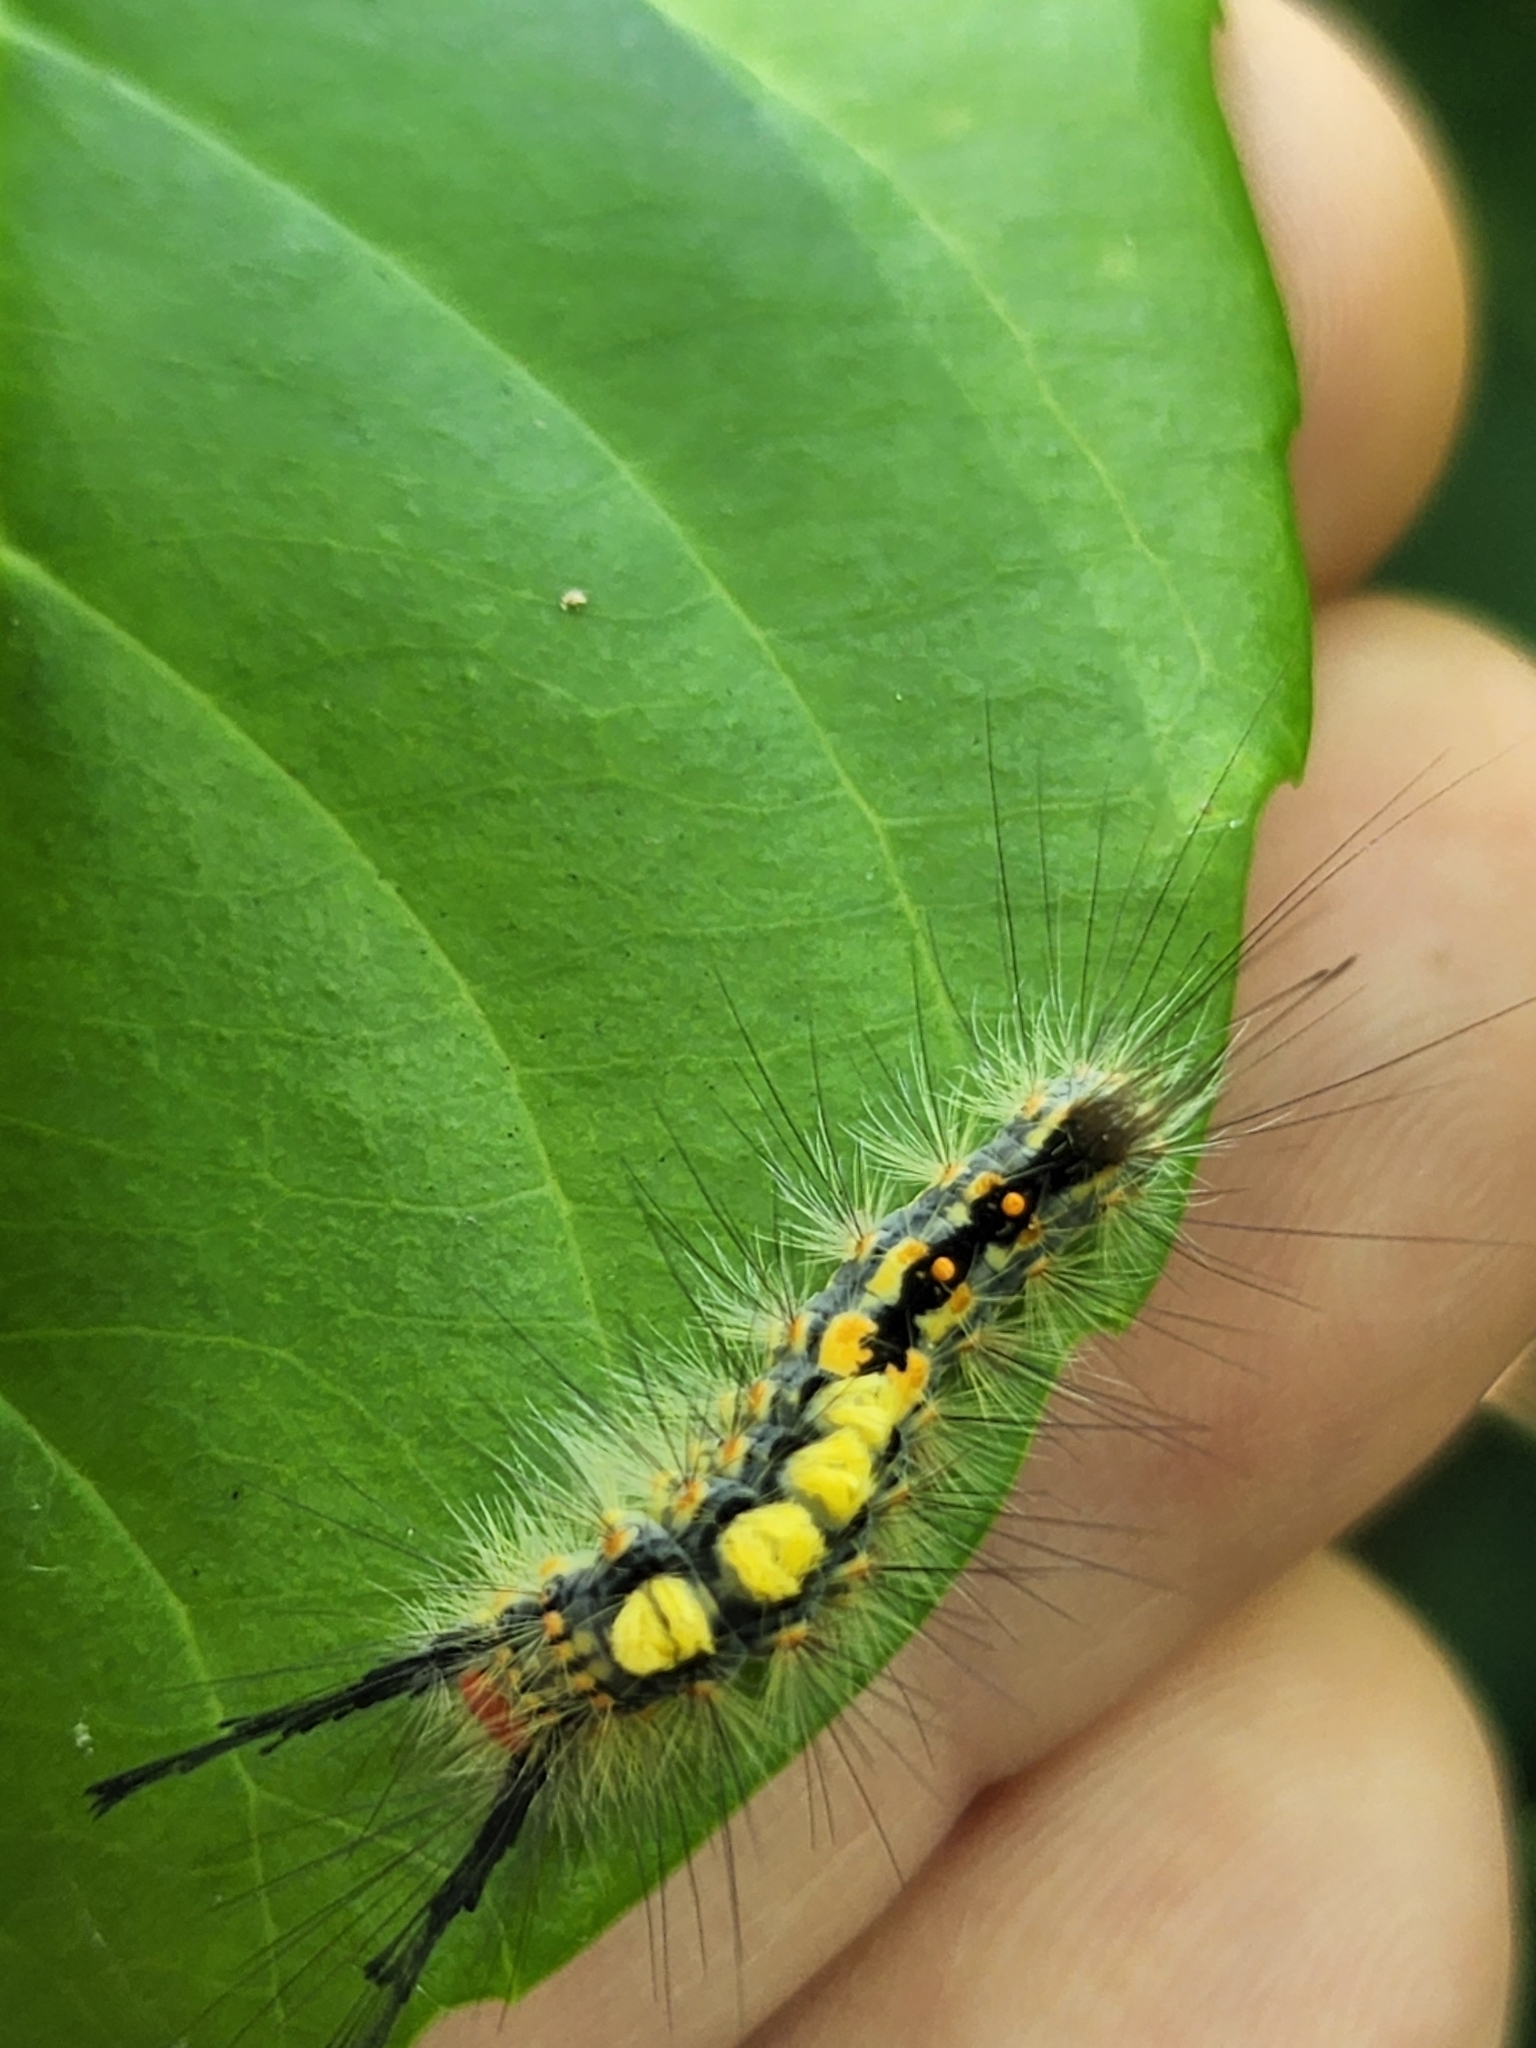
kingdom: Animalia
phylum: Arthropoda
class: Insecta
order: Lepidoptera
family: Erebidae
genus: Orgyia
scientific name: Orgyia detrita
